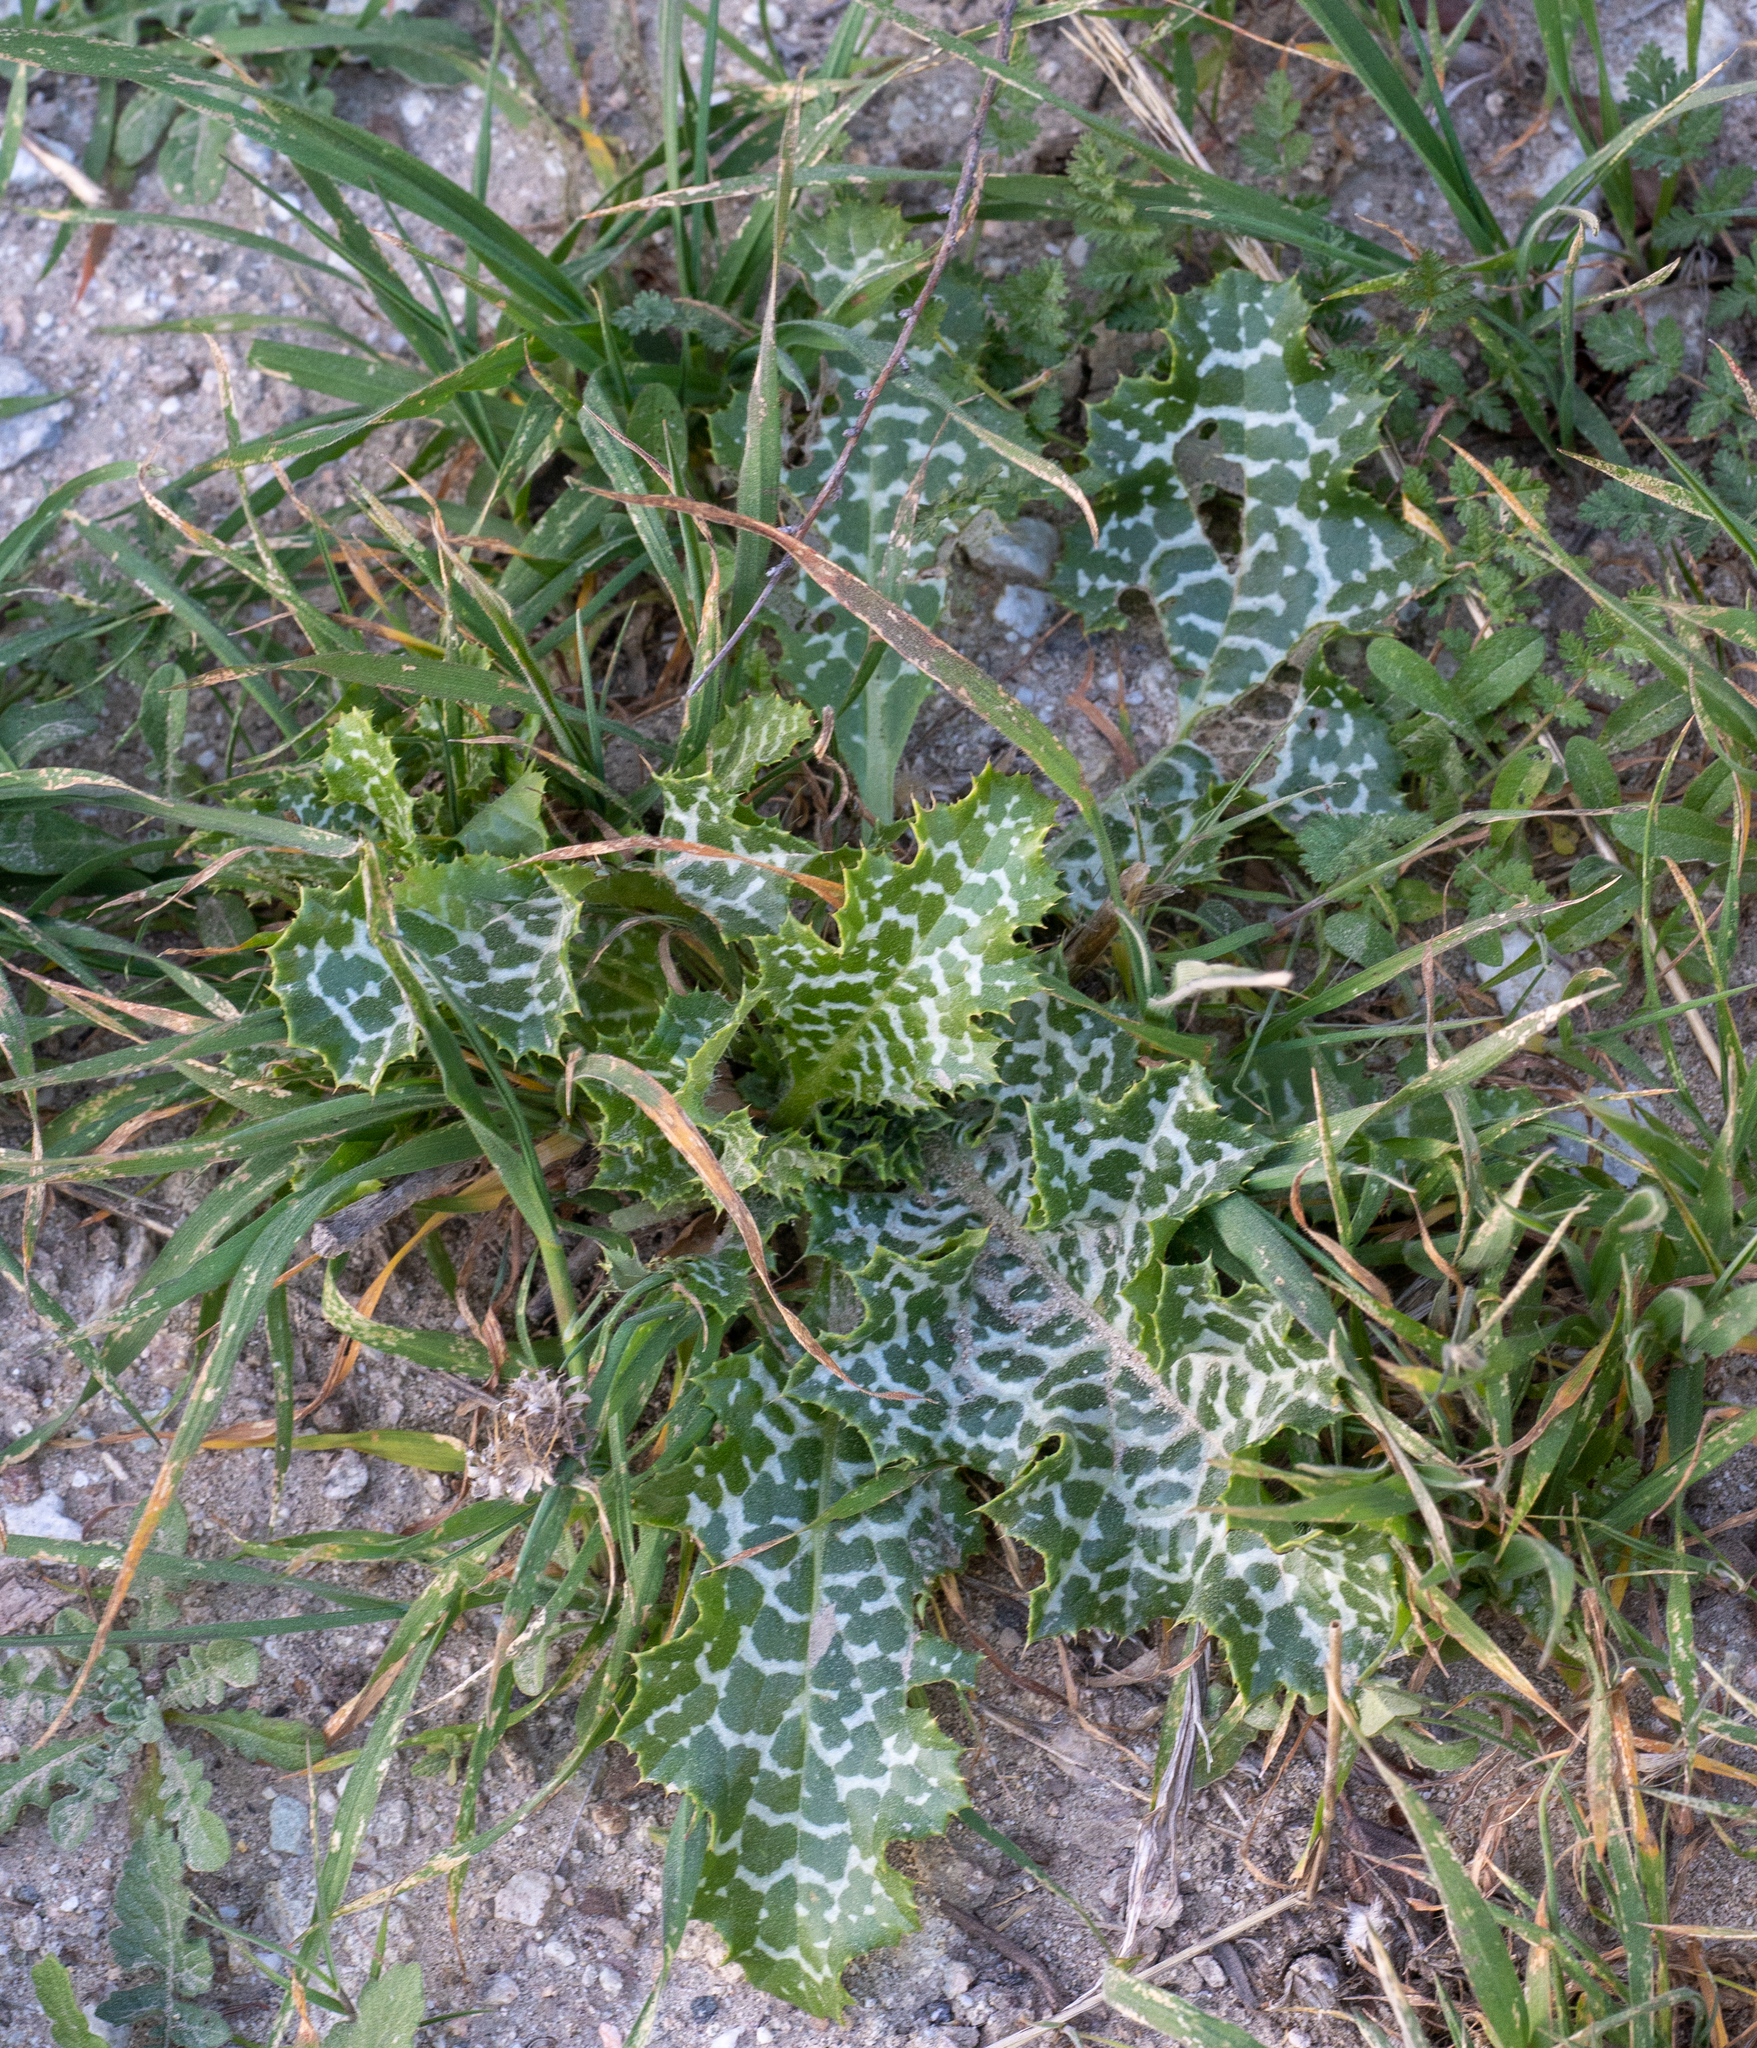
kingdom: Plantae
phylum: Tracheophyta
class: Magnoliopsida
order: Asterales
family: Asteraceae
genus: Silybum
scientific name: Silybum marianum
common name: Milk thistle
